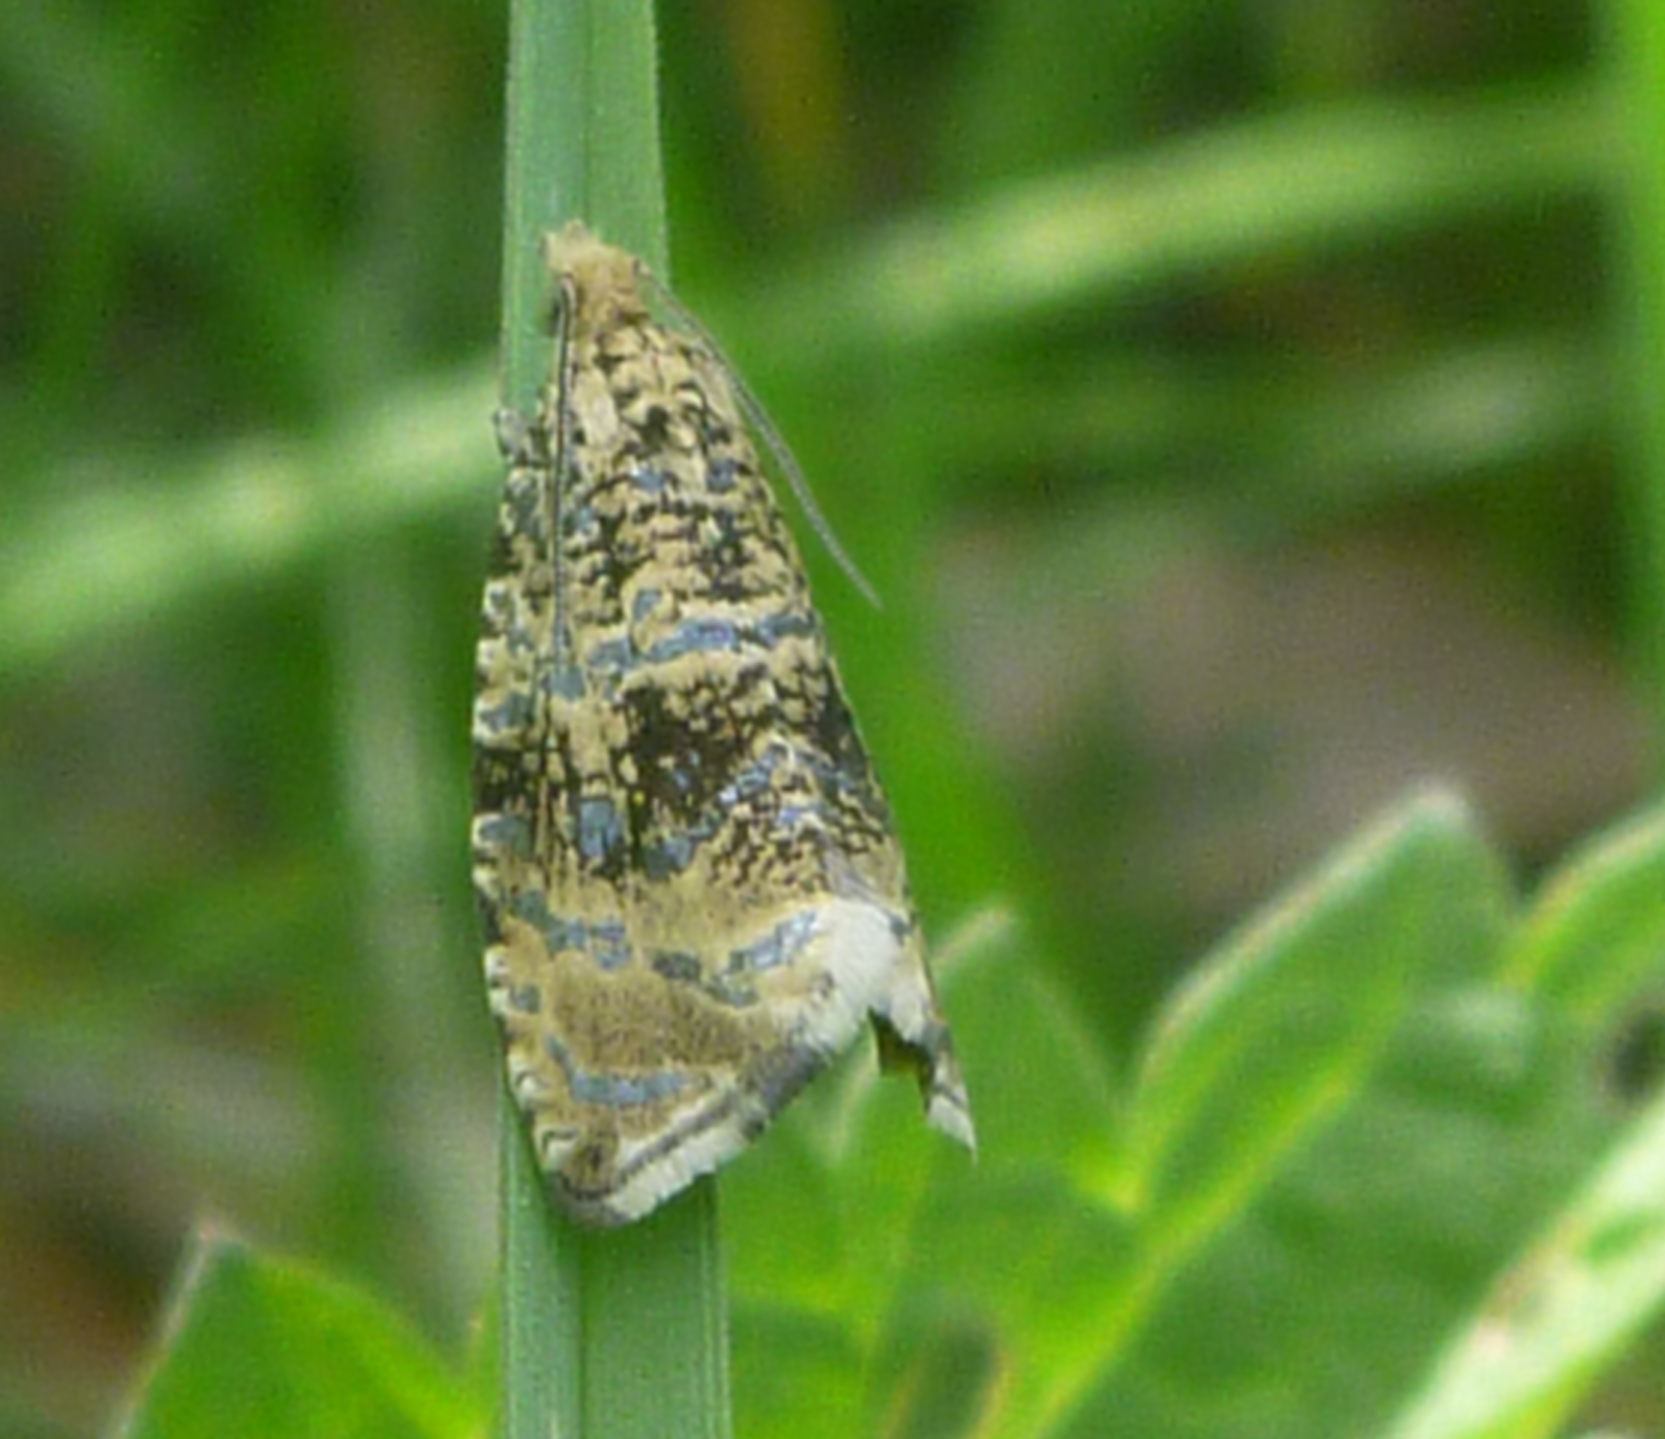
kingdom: Animalia
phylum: Arthropoda
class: Insecta
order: Lepidoptera
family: Tortricidae
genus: Syricoris
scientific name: Syricoris lacunana
